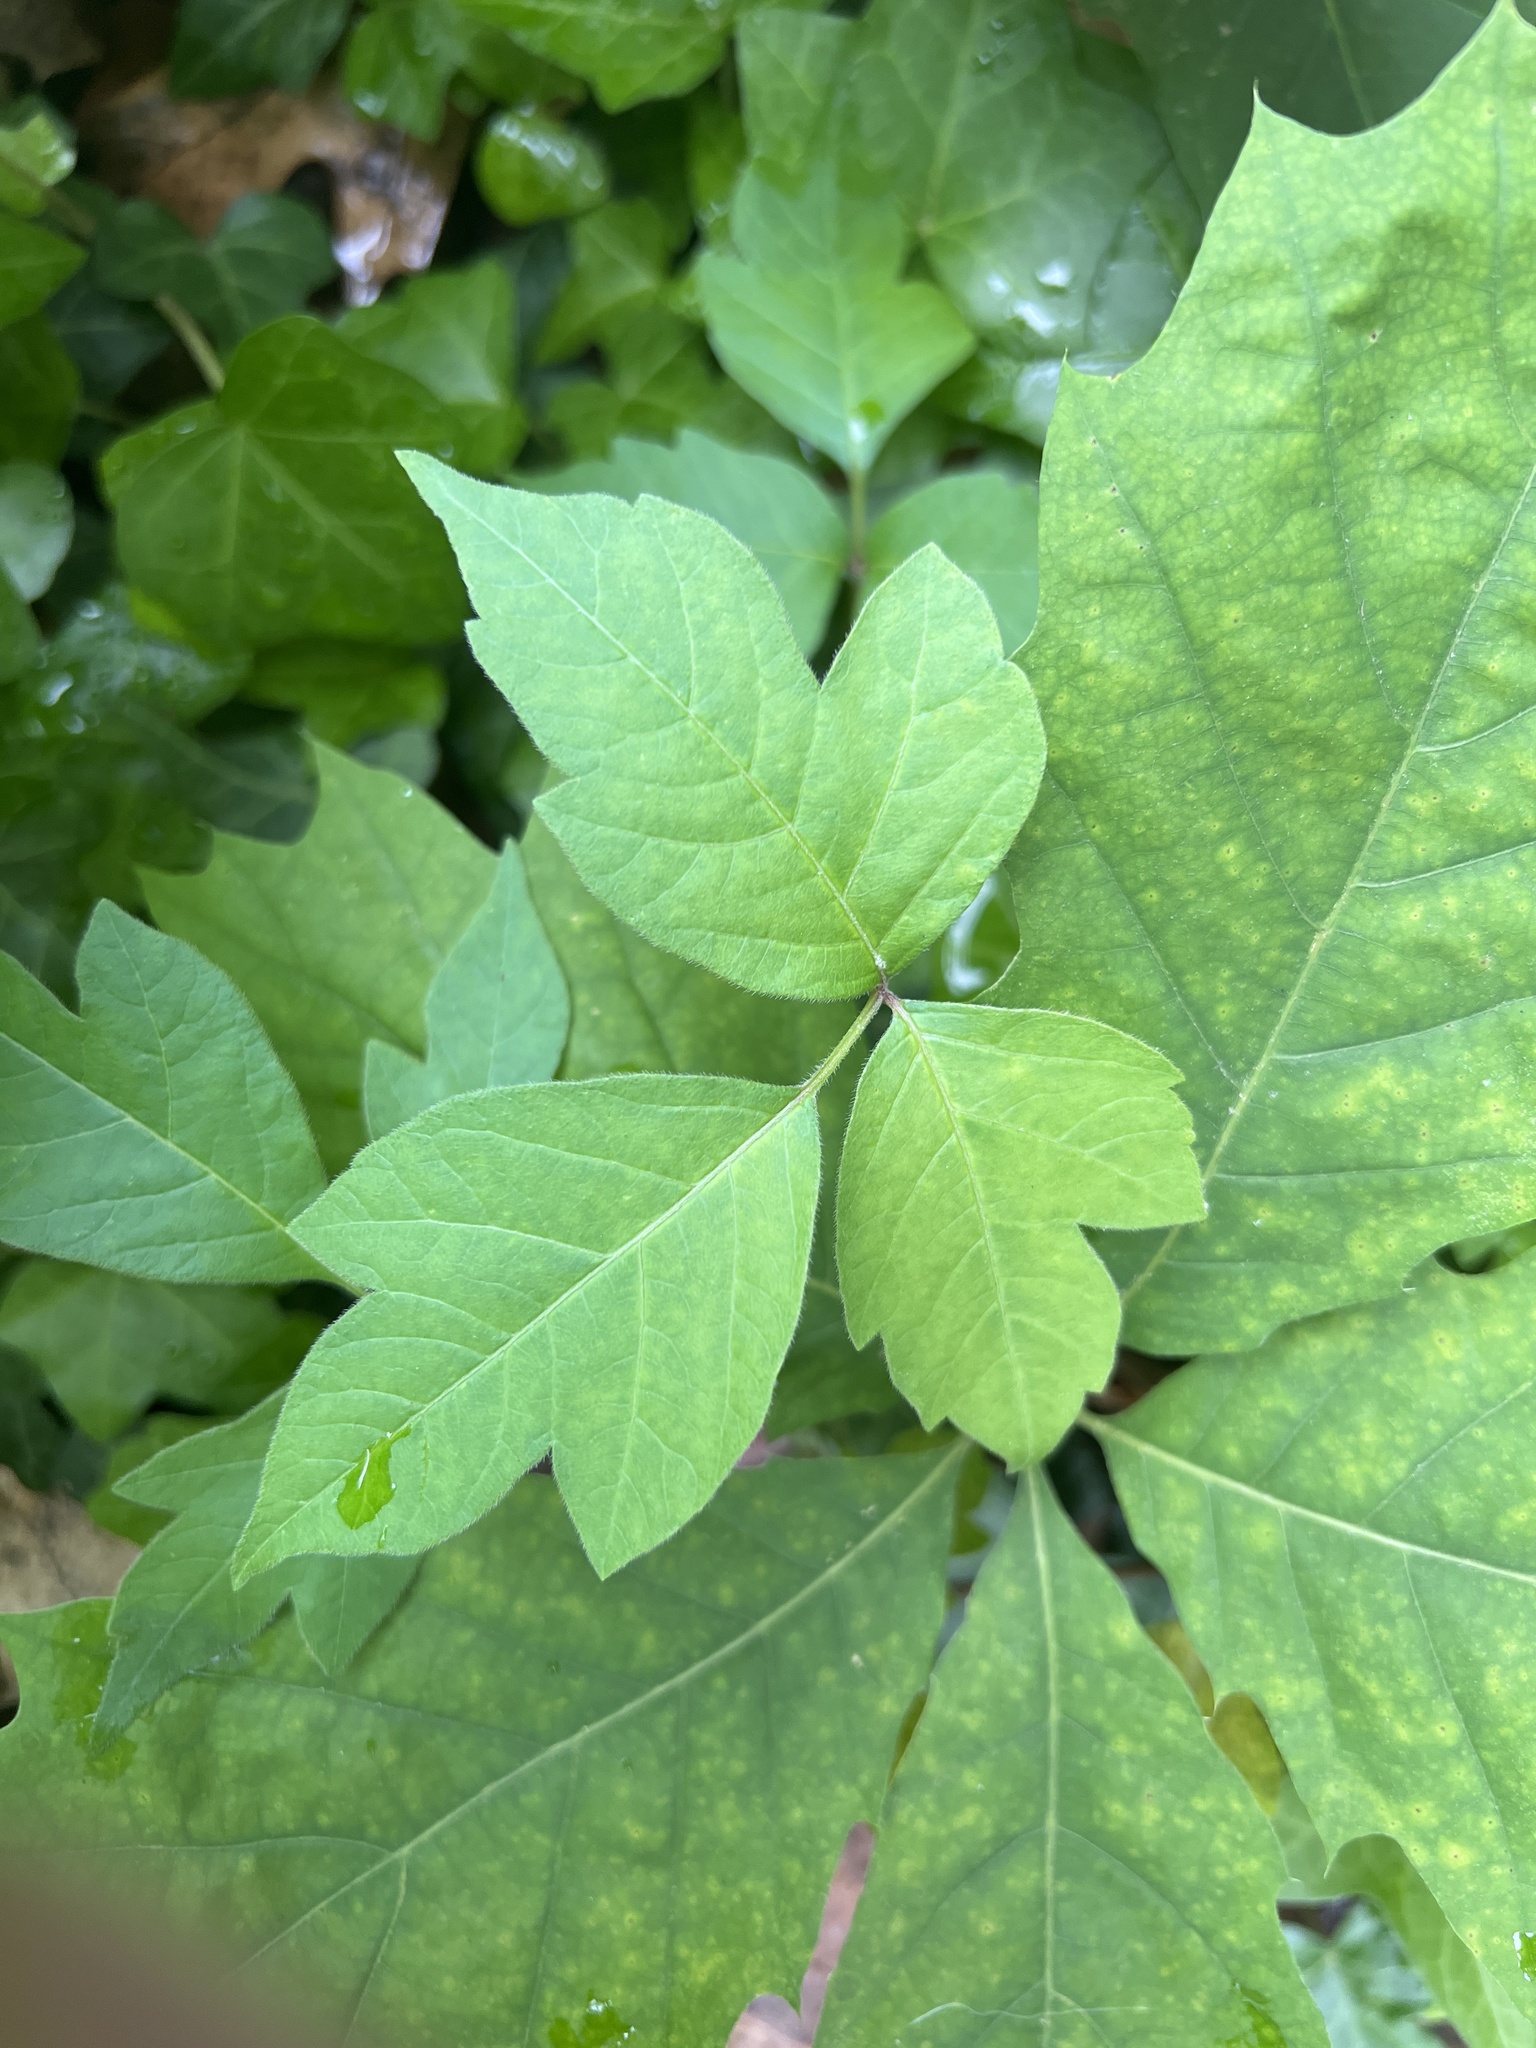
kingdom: Plantae
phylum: Tracheophyta
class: Magnoliopsida
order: Sapindales
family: Anacardiaceae
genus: Toxicodendron
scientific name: Toxicodendron radicans
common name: Poison ivy
